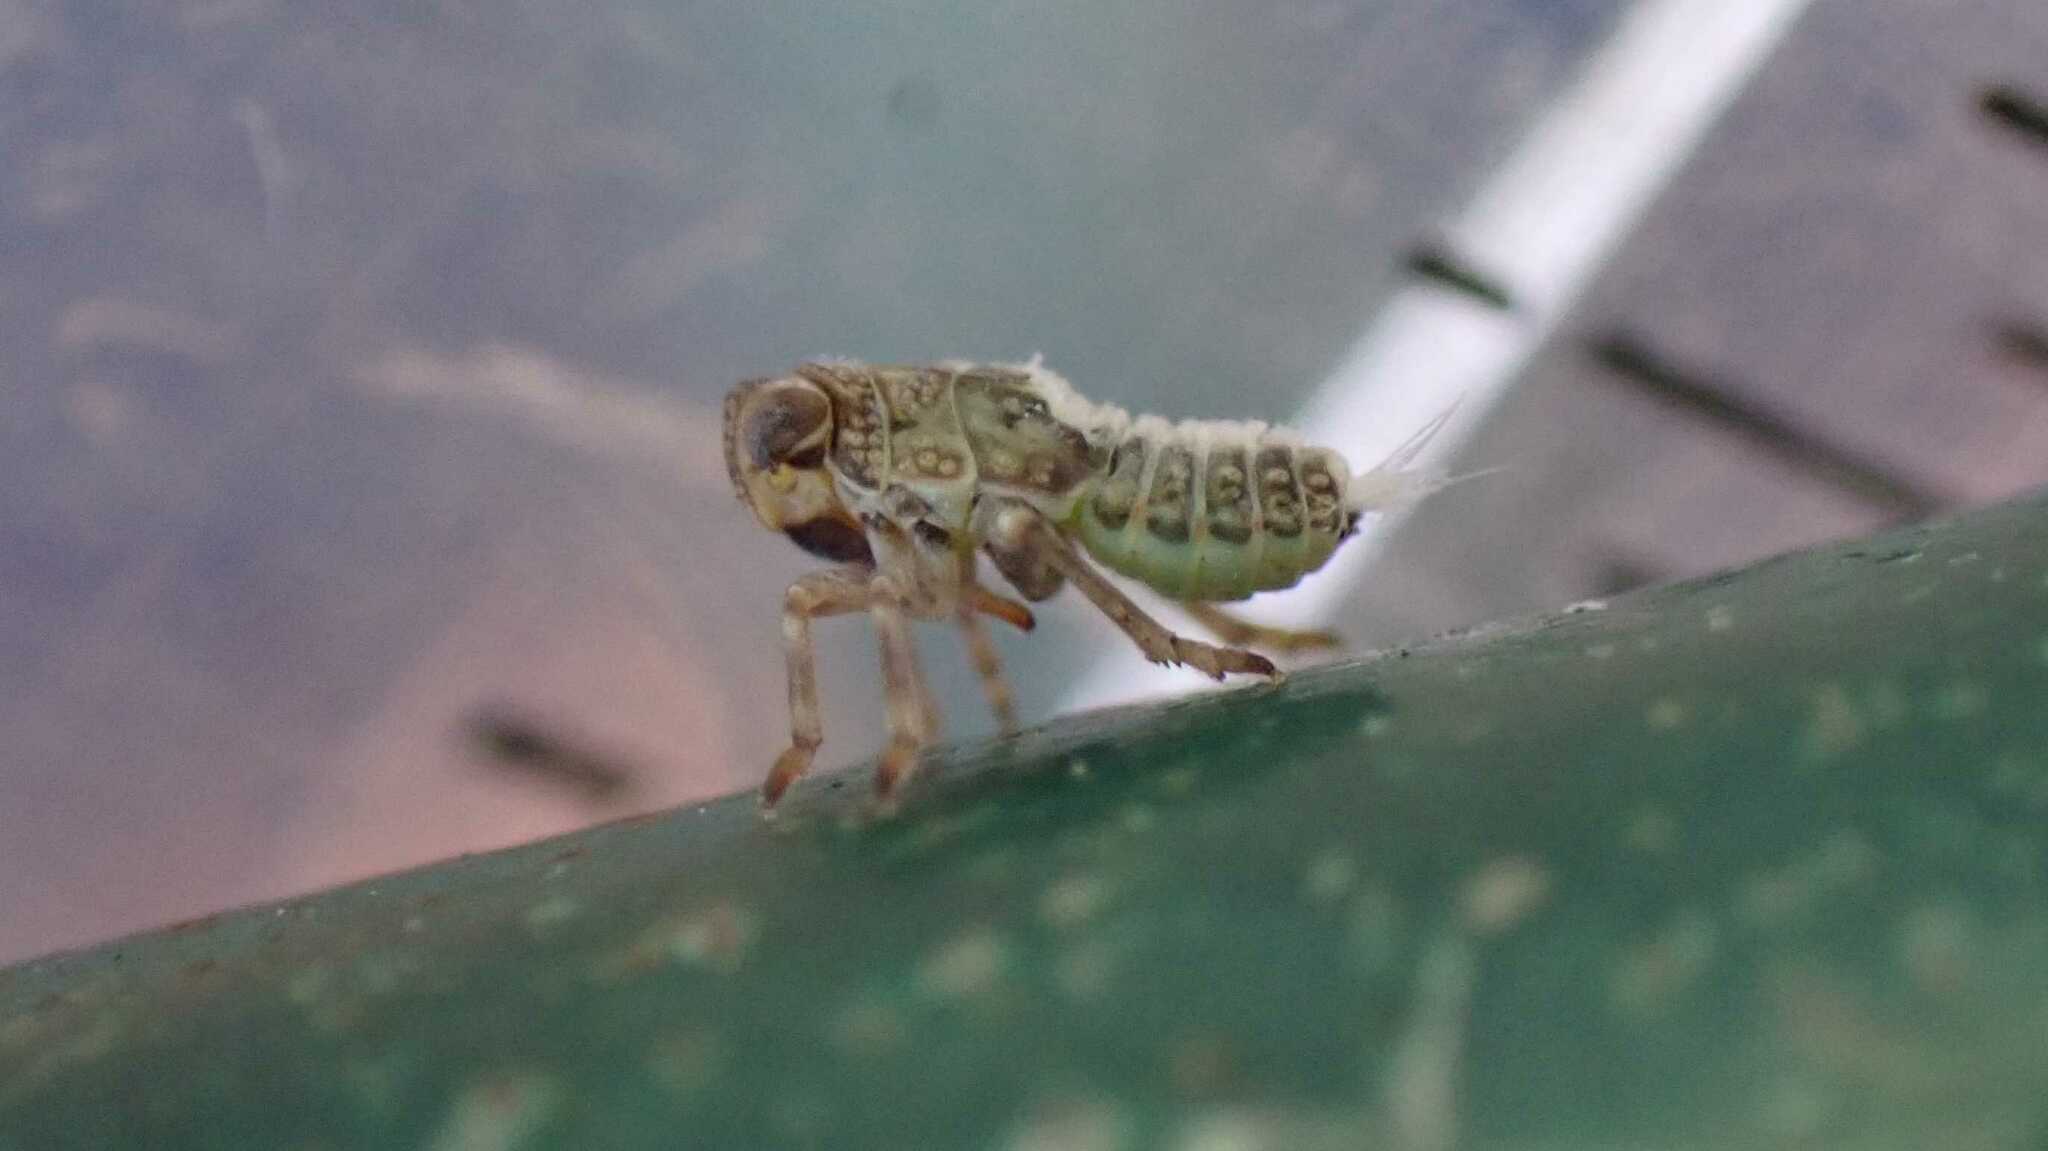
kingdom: Animalia
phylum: Arthropoda
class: Insecta
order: Hemiptera
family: Issidae
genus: Issus
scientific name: Issus coleoptratus
